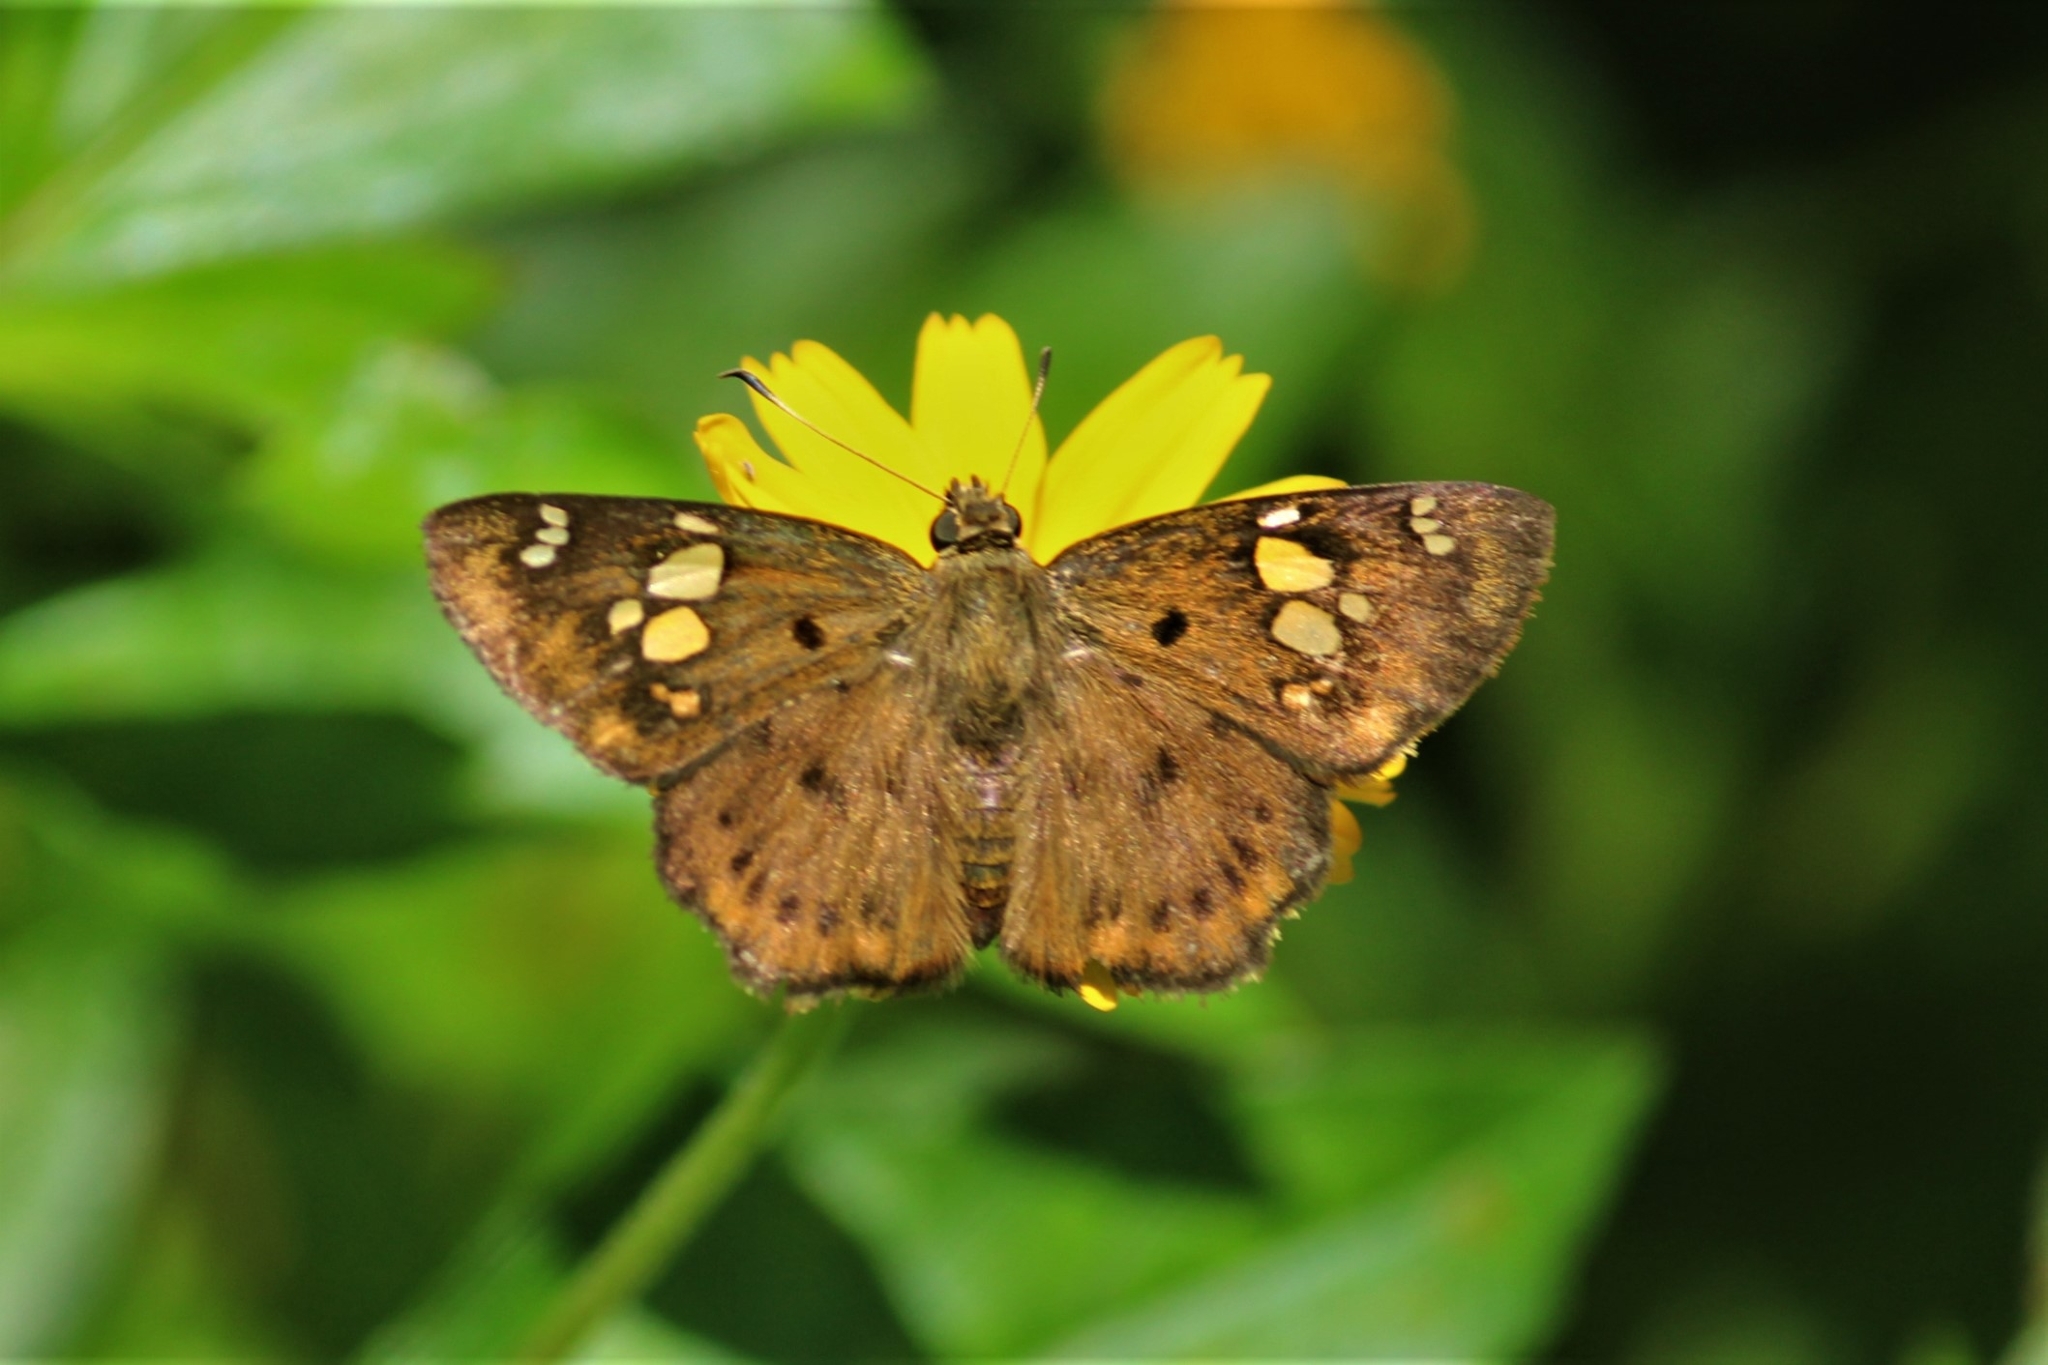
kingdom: Animalia
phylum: Arthropoda
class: Insecta
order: Lepidoptera
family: Hesperiidae
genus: Coladenia
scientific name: Coladenia
